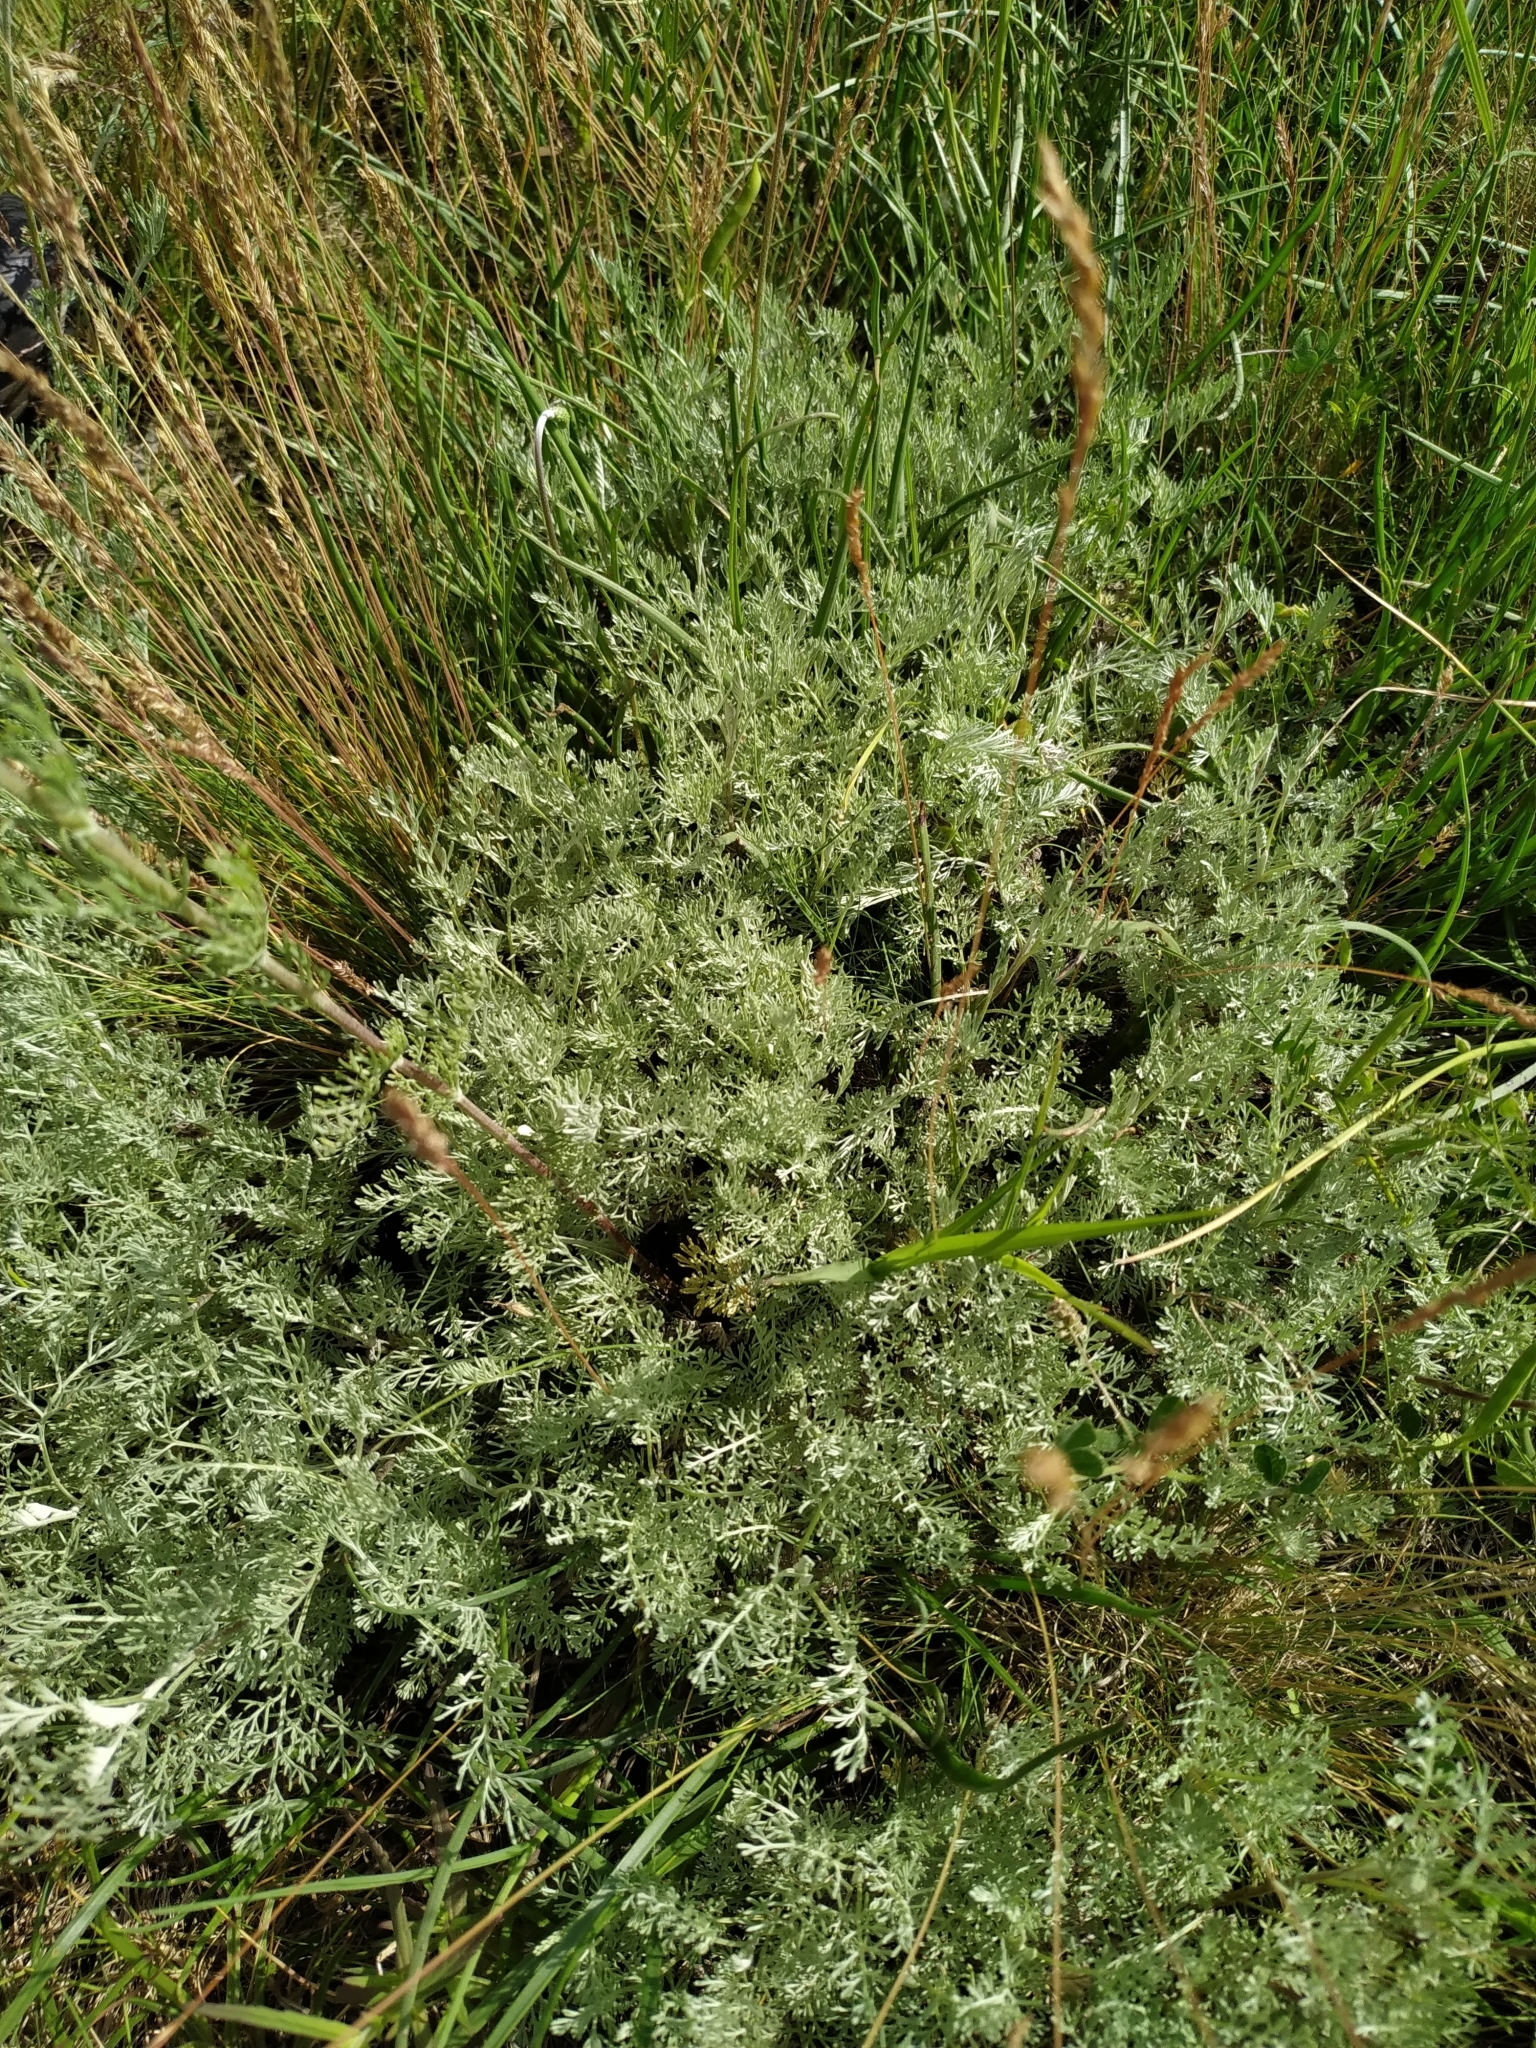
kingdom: Plantae
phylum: Tracheophyta
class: Magnoliopsida
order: Asterales
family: Asteraceae
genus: Artemisia
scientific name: Artemisia santonicum
